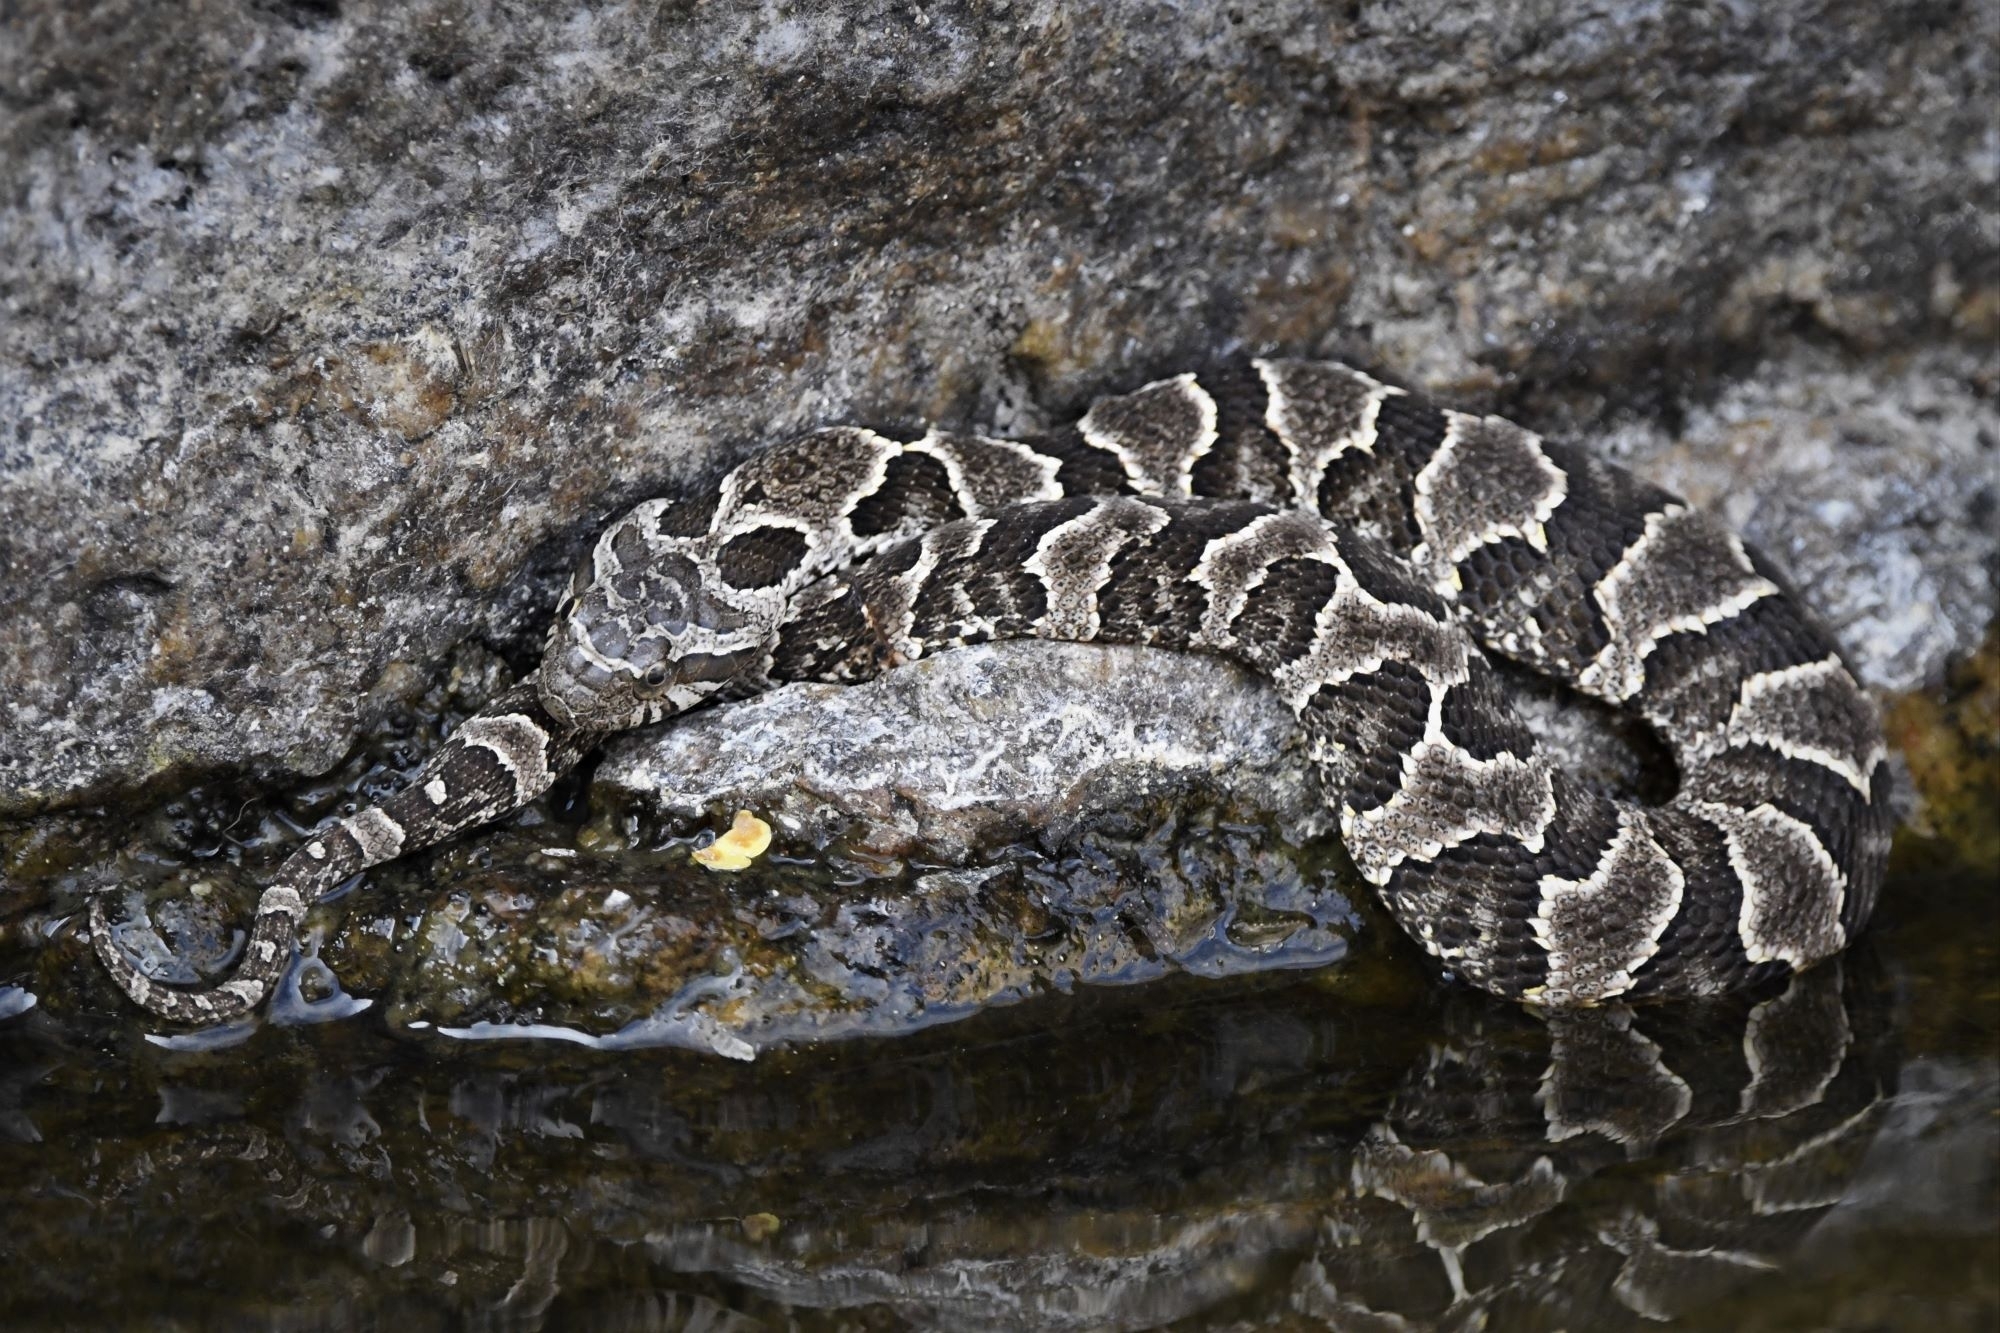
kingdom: Animalia
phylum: Chordata
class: Squamata
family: Colubridae
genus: Xenodon
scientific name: Xenodon merremii
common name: Wagler's snake
